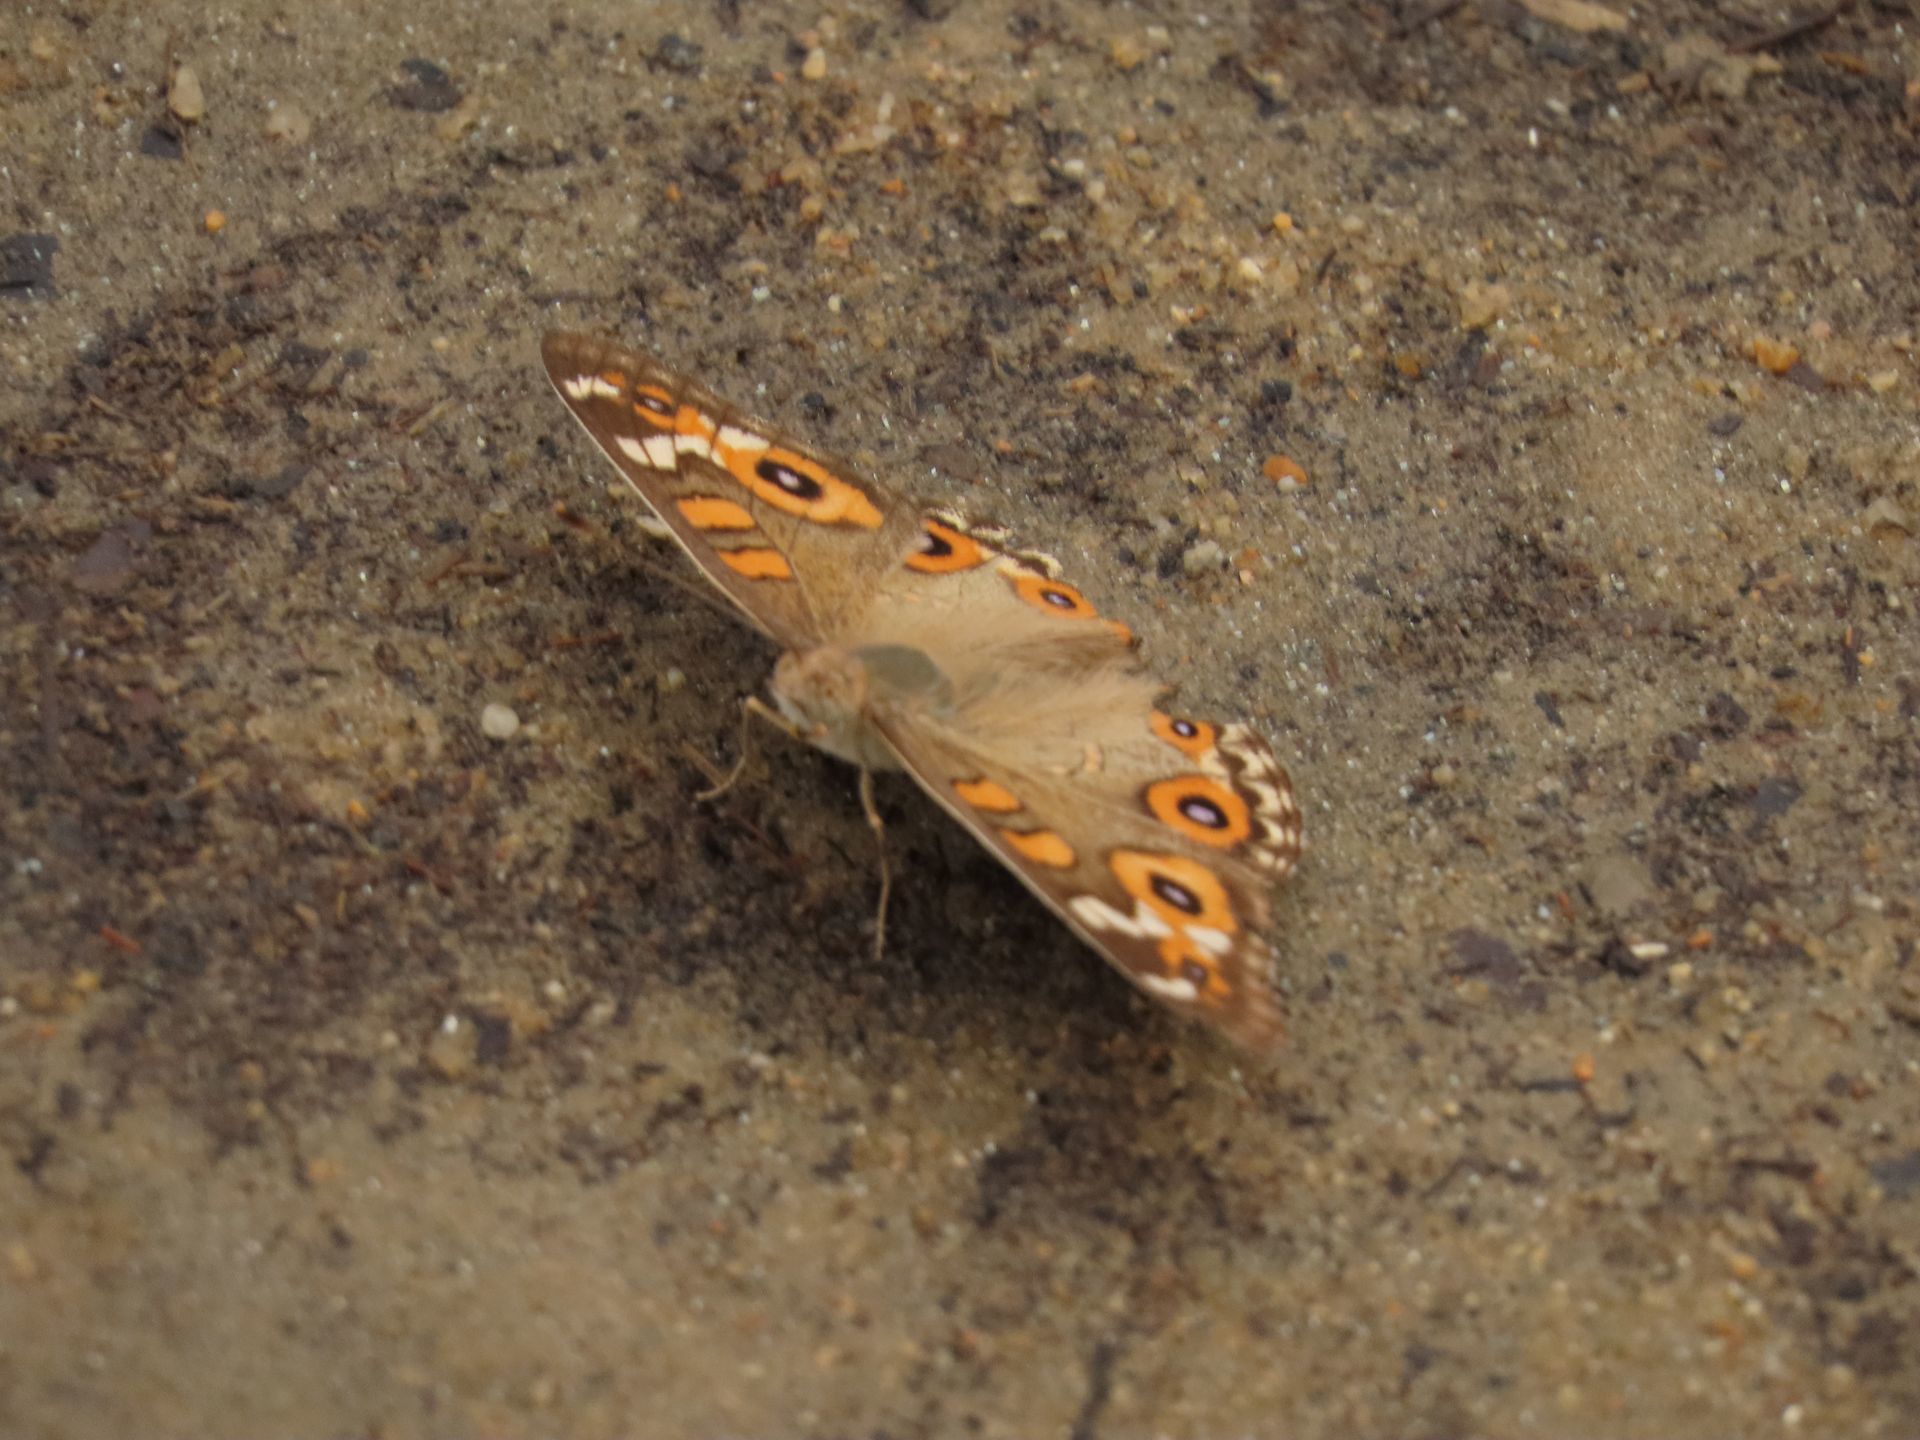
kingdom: Animalia
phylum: Arthropoda
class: Insecta
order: Lepidoptera
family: Nymphalidae
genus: Junonia
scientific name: Junonia villida
